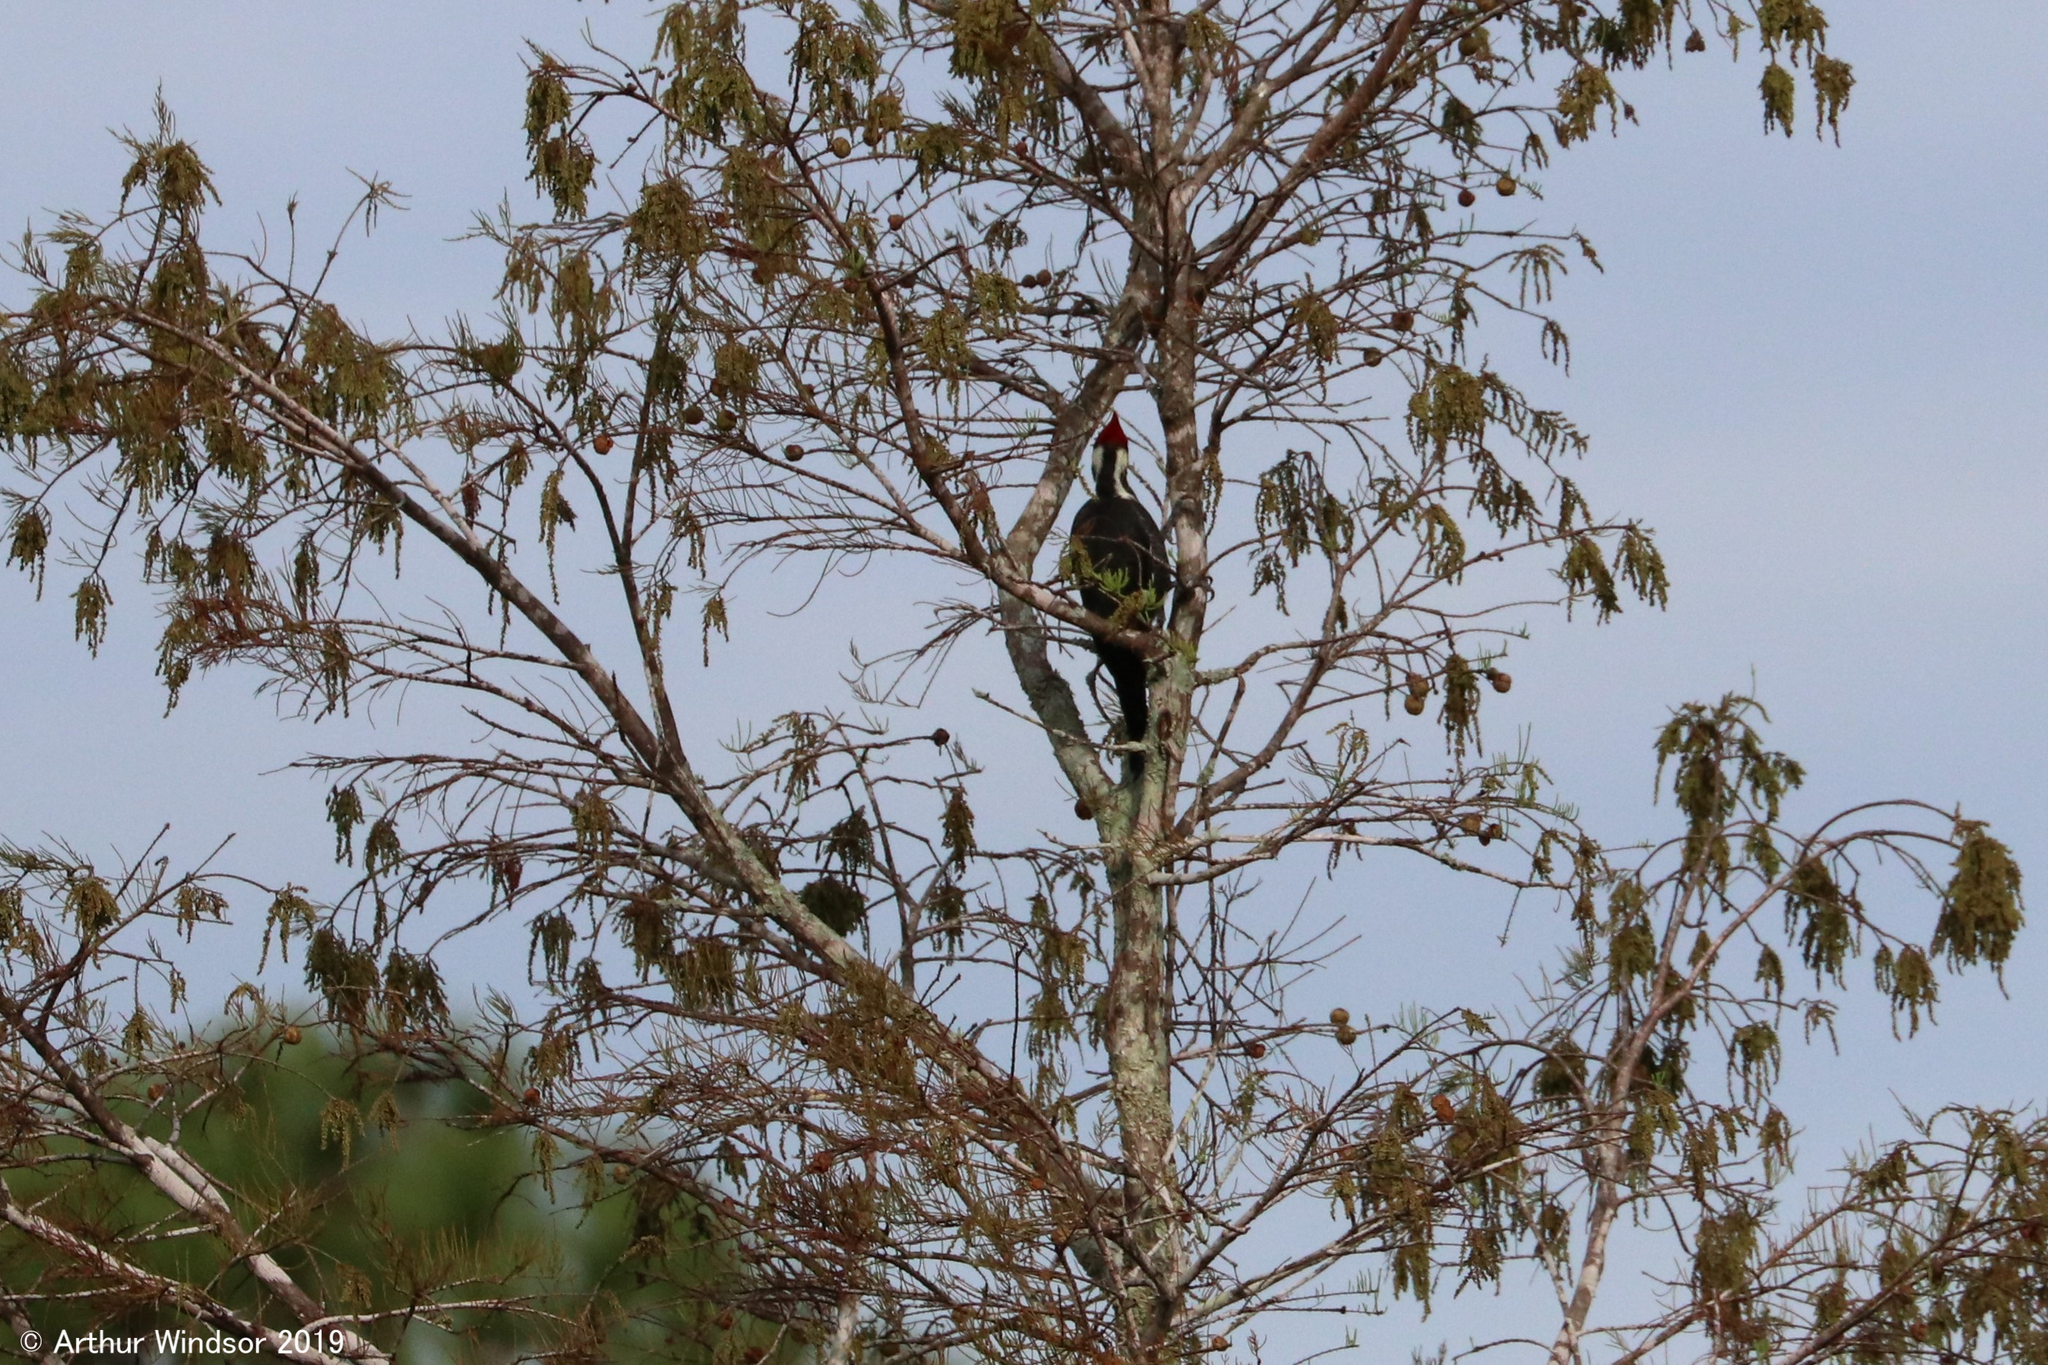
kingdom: Animalia
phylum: Chordata
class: Aves
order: Piciformes
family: Picidae
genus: Dryocopus
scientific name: Dryocopus pileatus
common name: Pileated woodpecker
